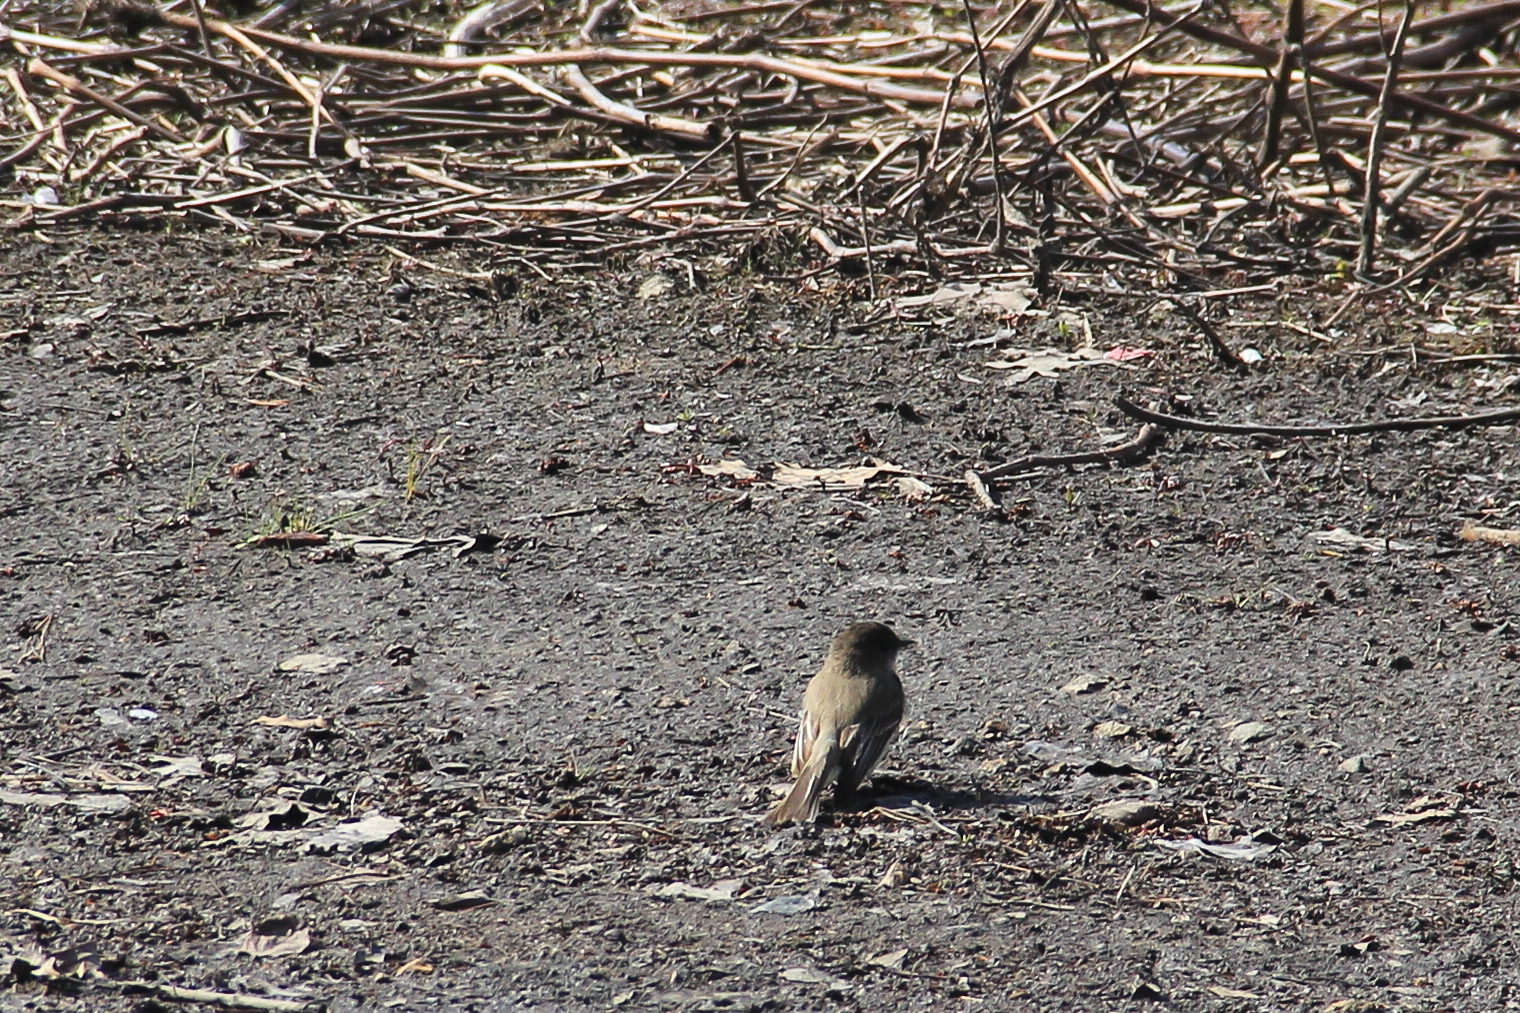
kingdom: Animalia
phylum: Chordata
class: Aves
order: Passeriformes
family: Tyrannidae
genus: Sayornis
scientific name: Sayornis phoebe
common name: Eastern phoebe
